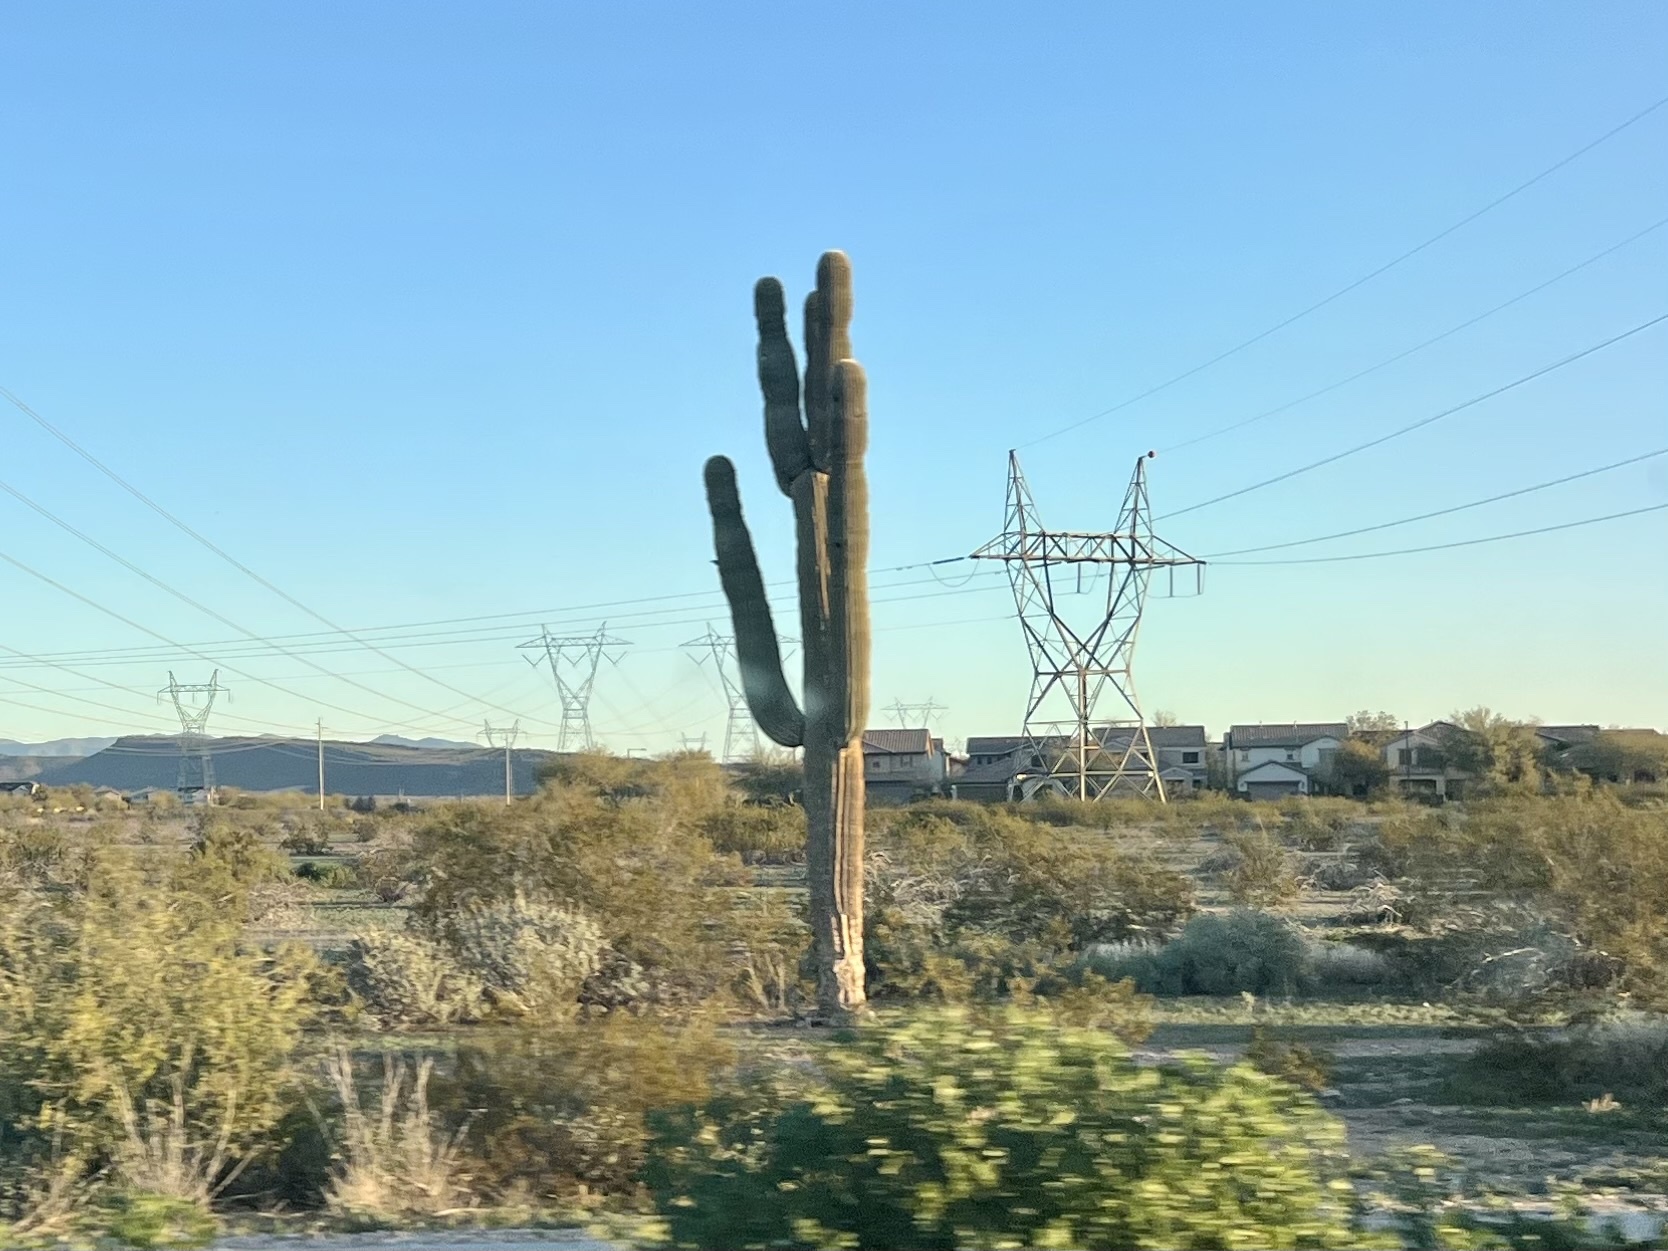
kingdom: Plantae
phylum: Tracheophyta
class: Magnoliopsida
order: Caryophyllales
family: Cactaceae
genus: Carnegiea
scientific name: Carnegiea gigantea
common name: Saguaro
